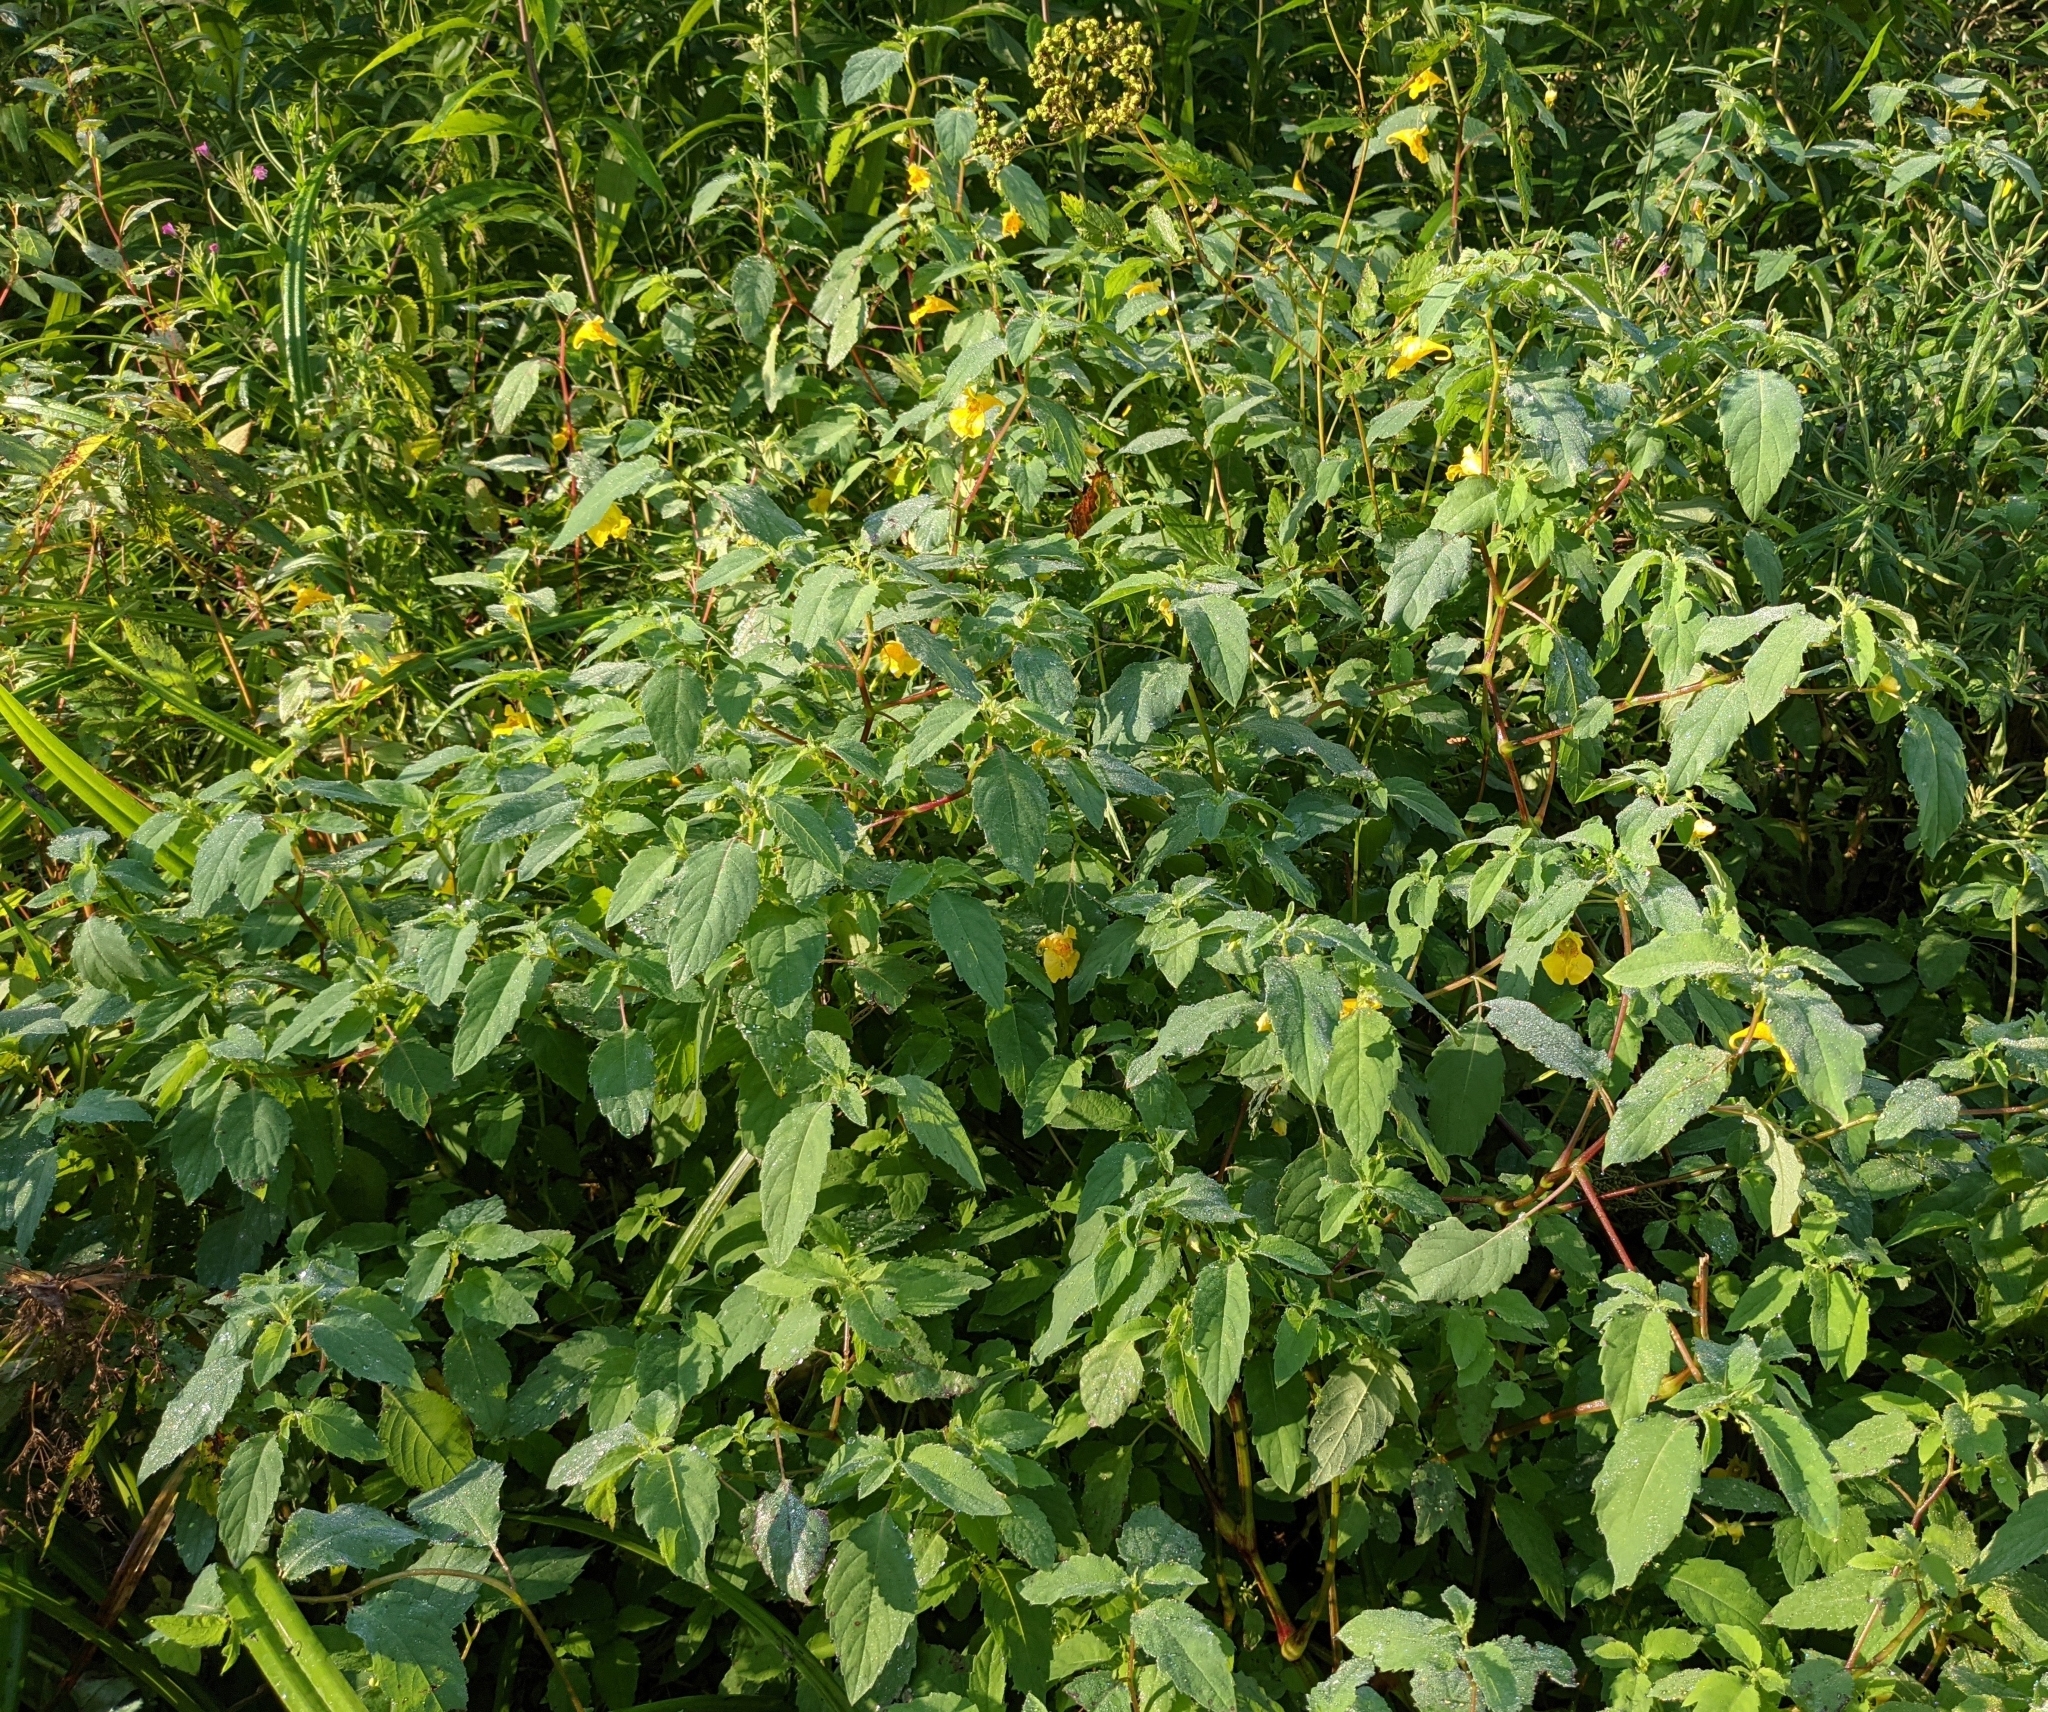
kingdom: Plantae
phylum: Tracheophyta
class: Magnoliopsida
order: Ericales
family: Balsaminaceae
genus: Impatiens
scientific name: Impatiens noli-tangere
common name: Touch-me-not balsam
